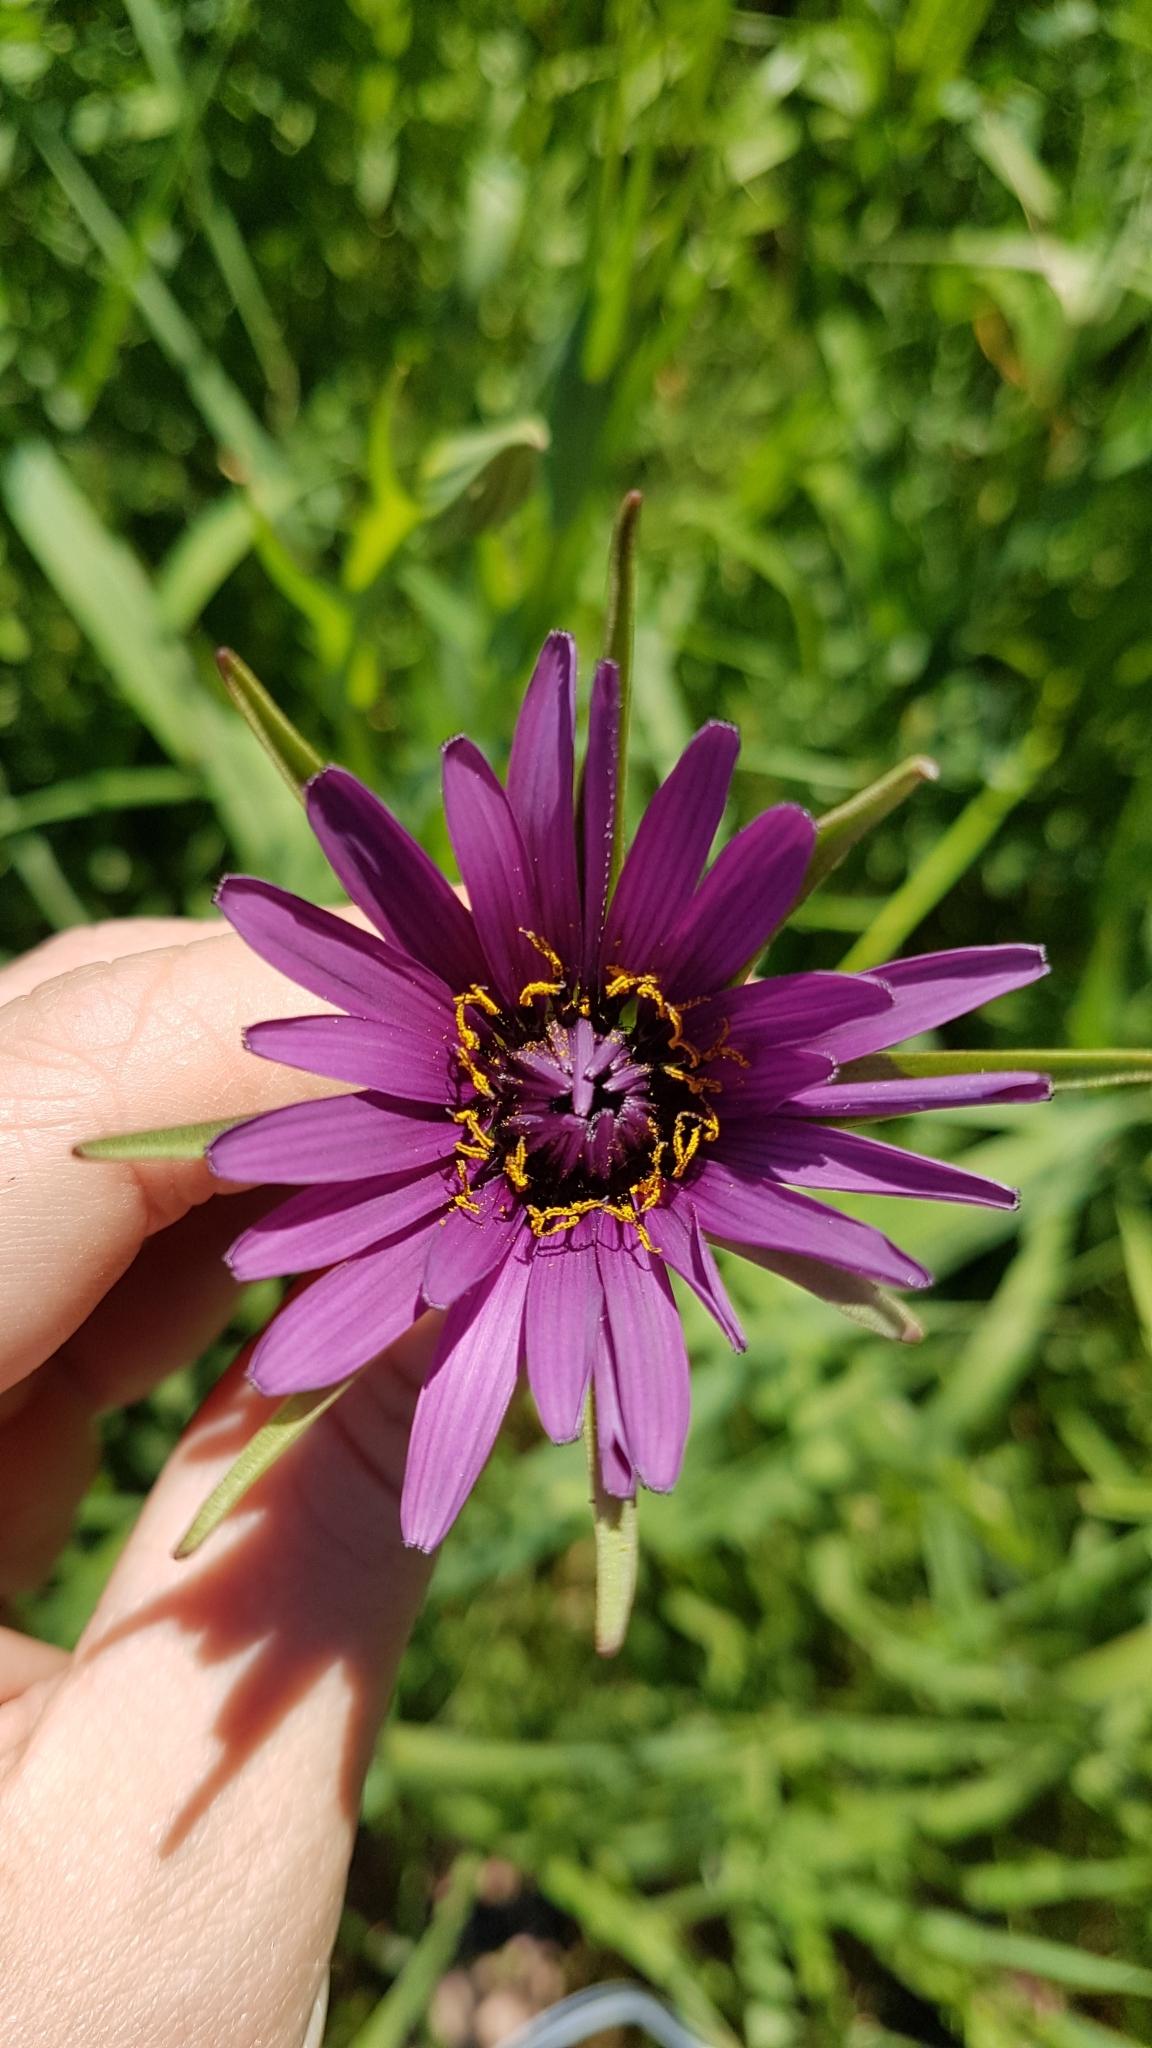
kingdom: Plantae
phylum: Tracheophyta
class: Magnoliopsida
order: Asterales
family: Asteraceae
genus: Tragopogon
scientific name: Tragopogon porrifolius
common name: Salsify
